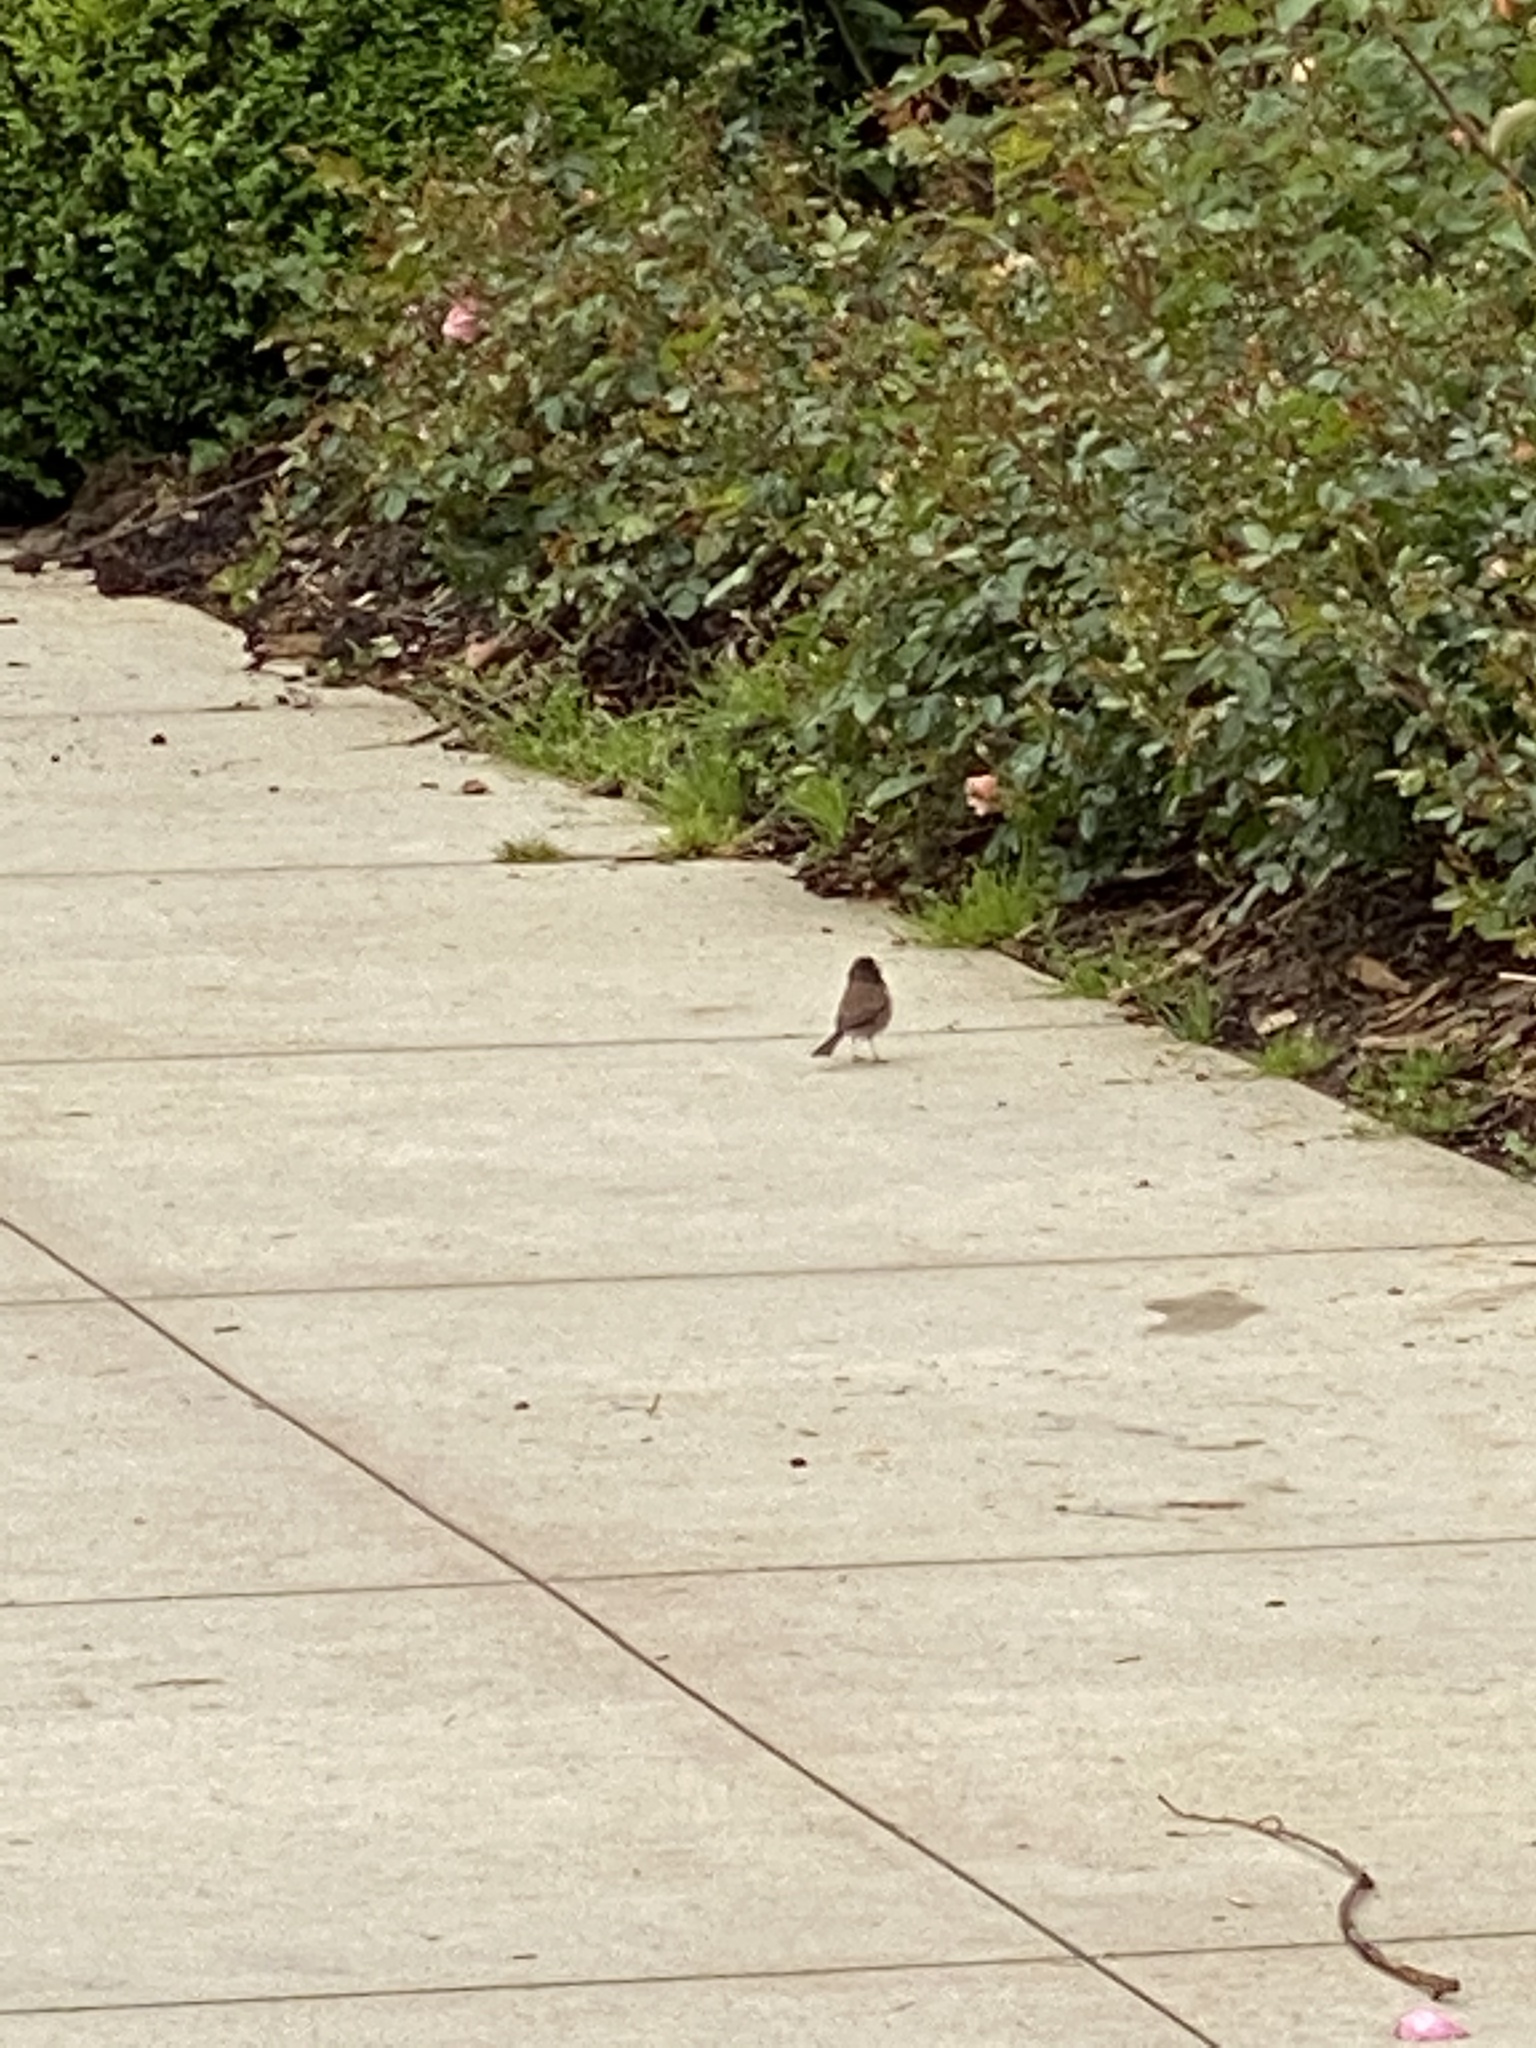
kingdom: Animalia
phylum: Chordata
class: Aves
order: Passeriformes
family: Passerellidae
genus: Junco
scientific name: Junco hyemalis
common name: Dark-eyed junco
